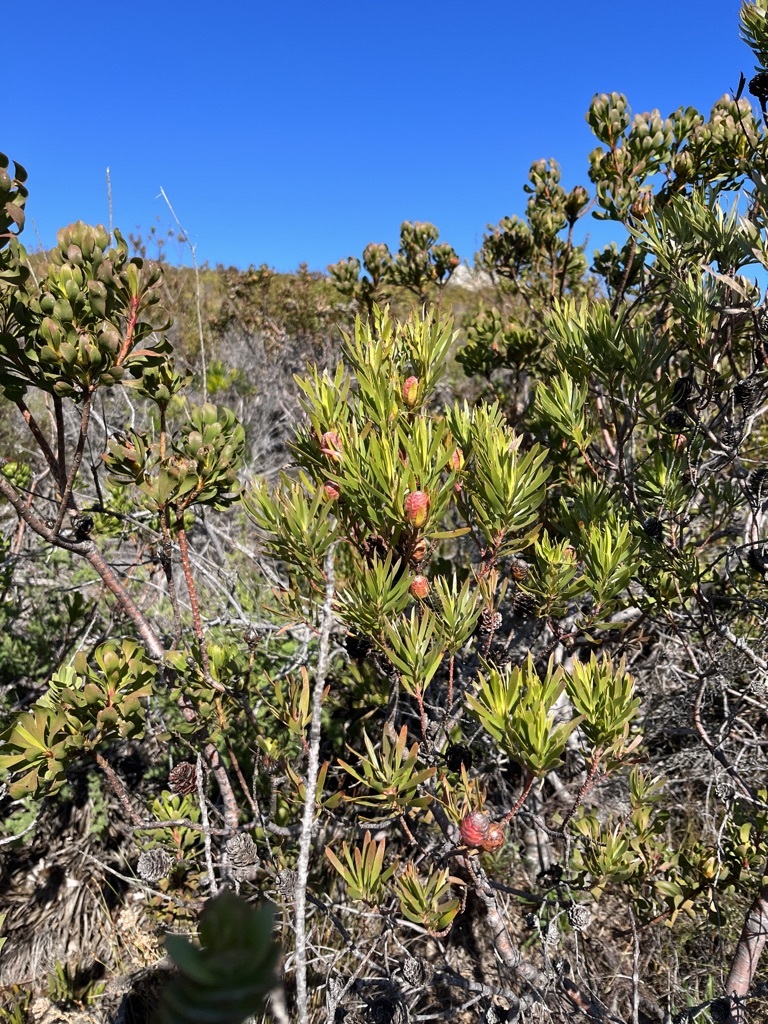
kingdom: Plantae
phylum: Tracheophyta
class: Magnoliopsida
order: Proteales
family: Proteaceae
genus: Leucadendron
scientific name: Leucadendron xanthoconus
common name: Sickle-leaf conebush
